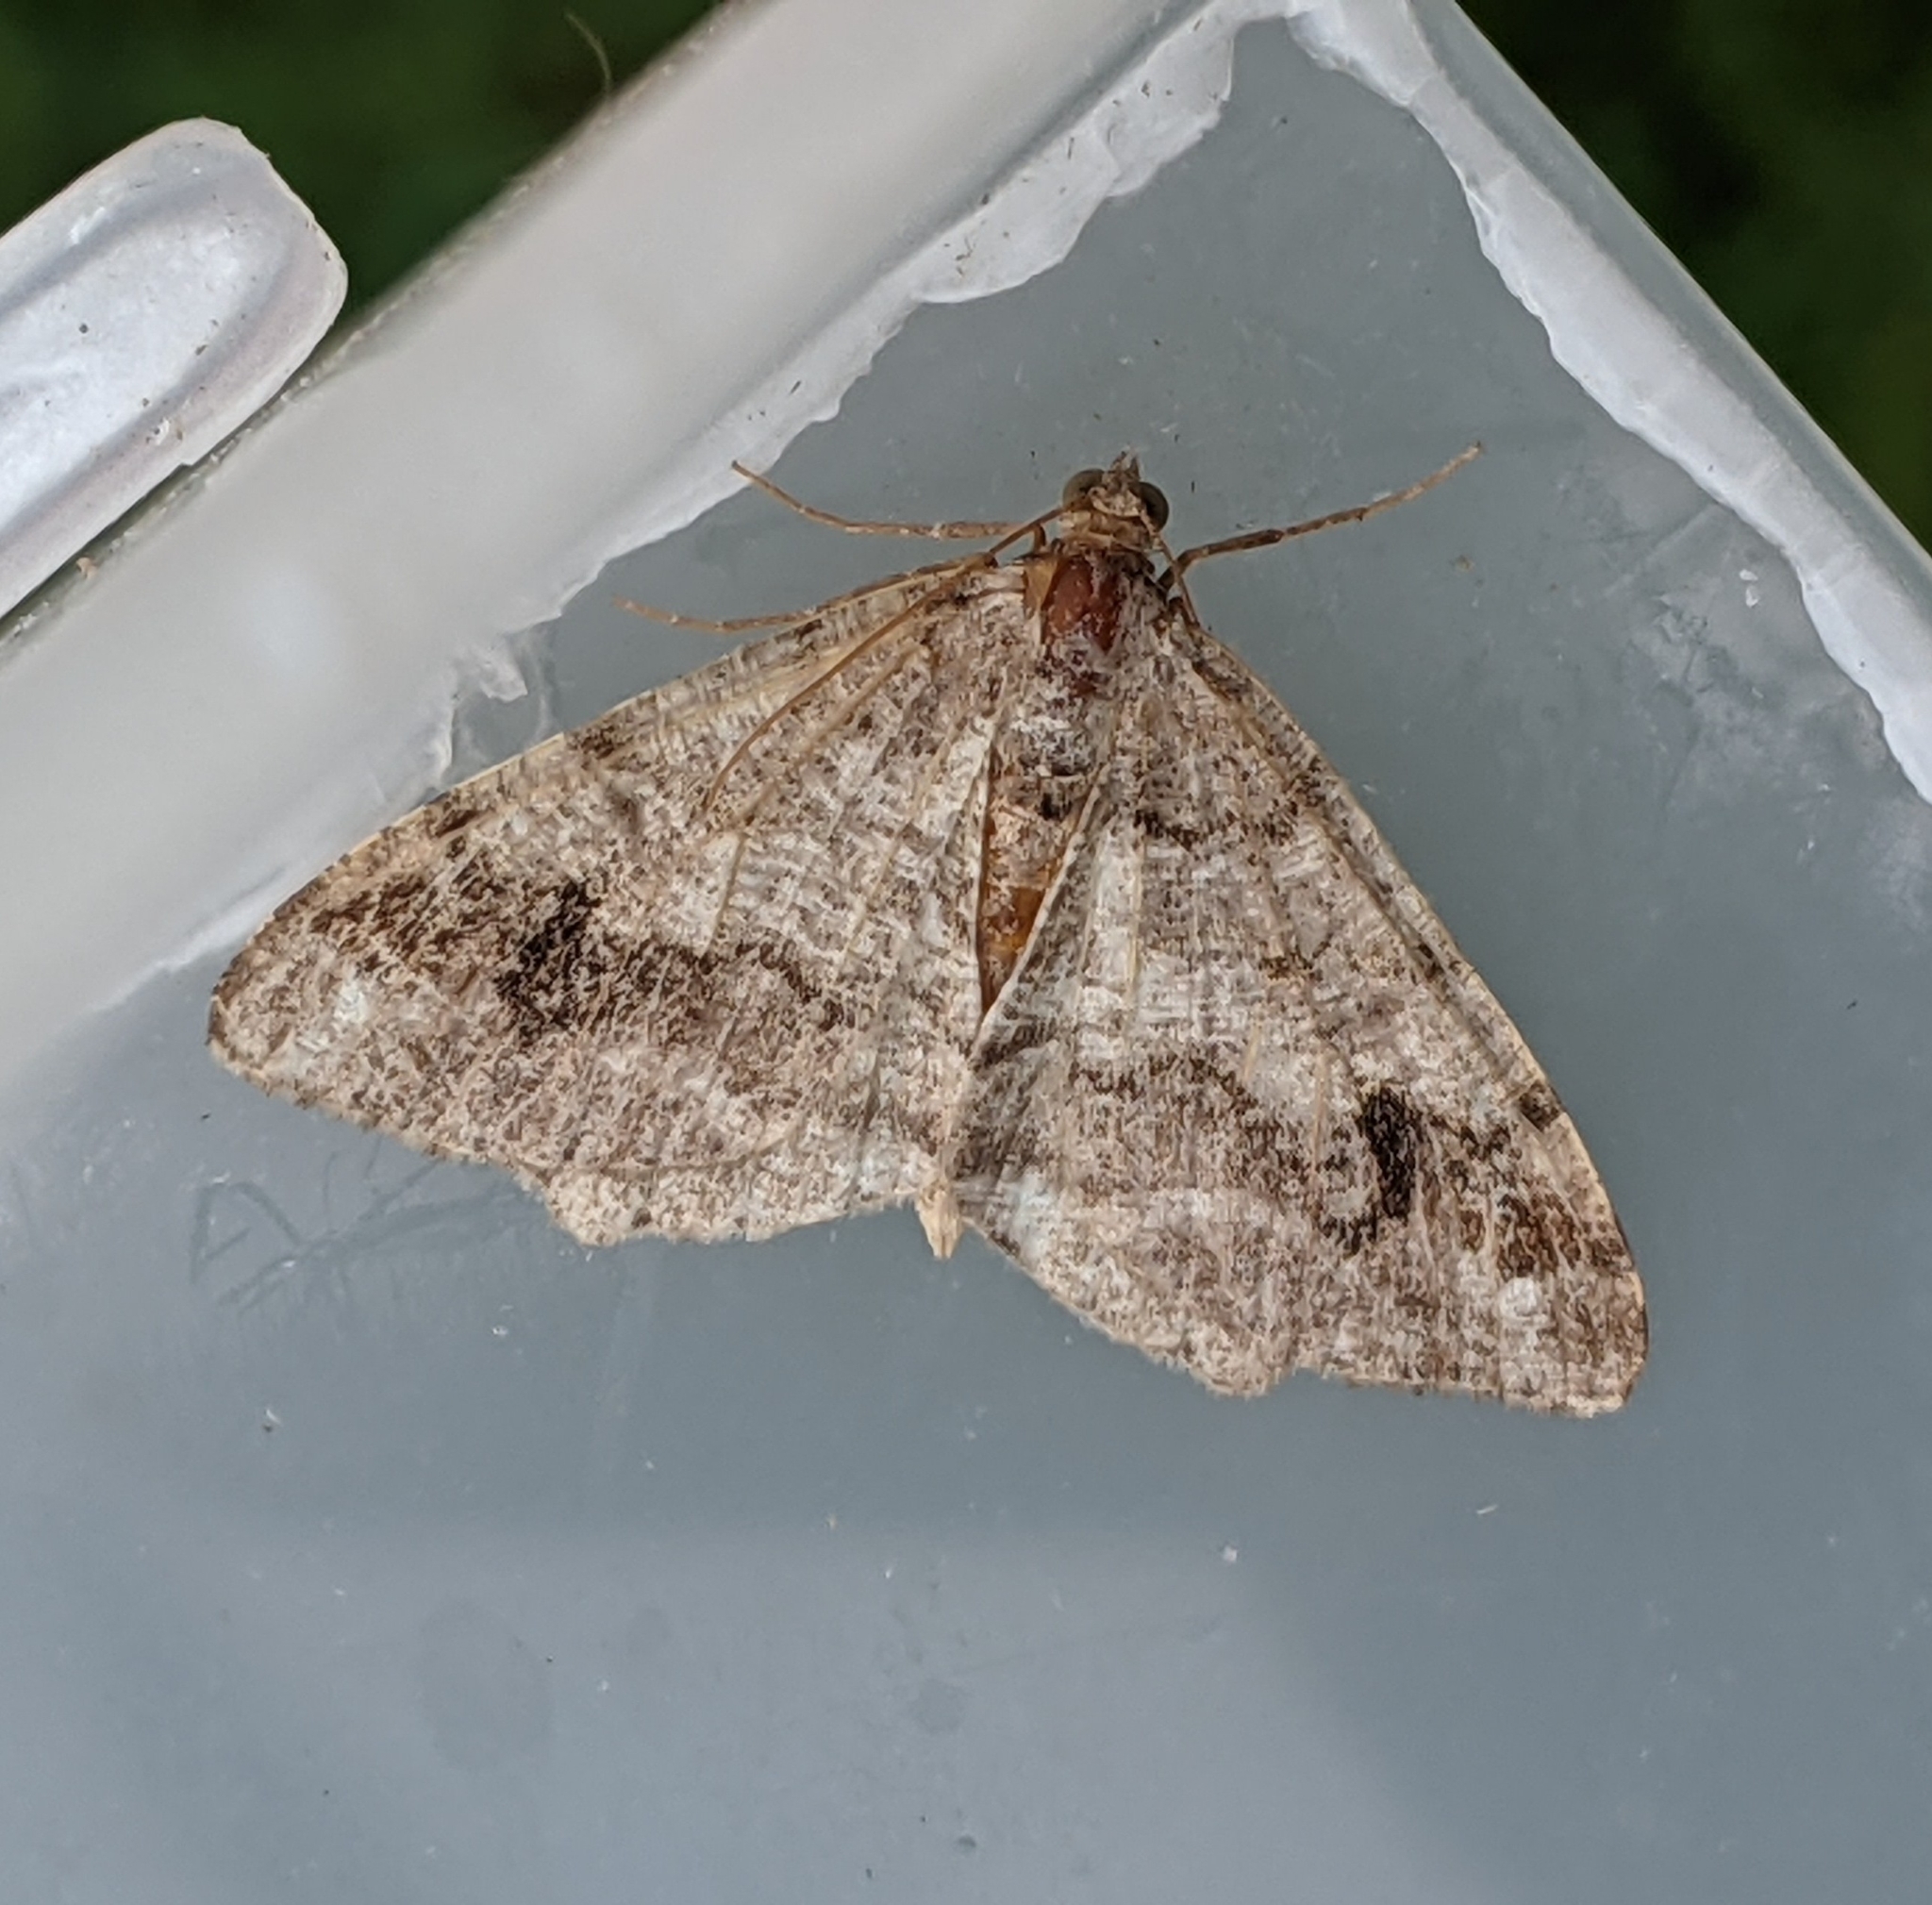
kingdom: Animalia
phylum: Arthropoda
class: Insecta
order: Lepidoptera
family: Geometridae
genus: Macaria
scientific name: Macaria signaria
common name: Dusky peacock
